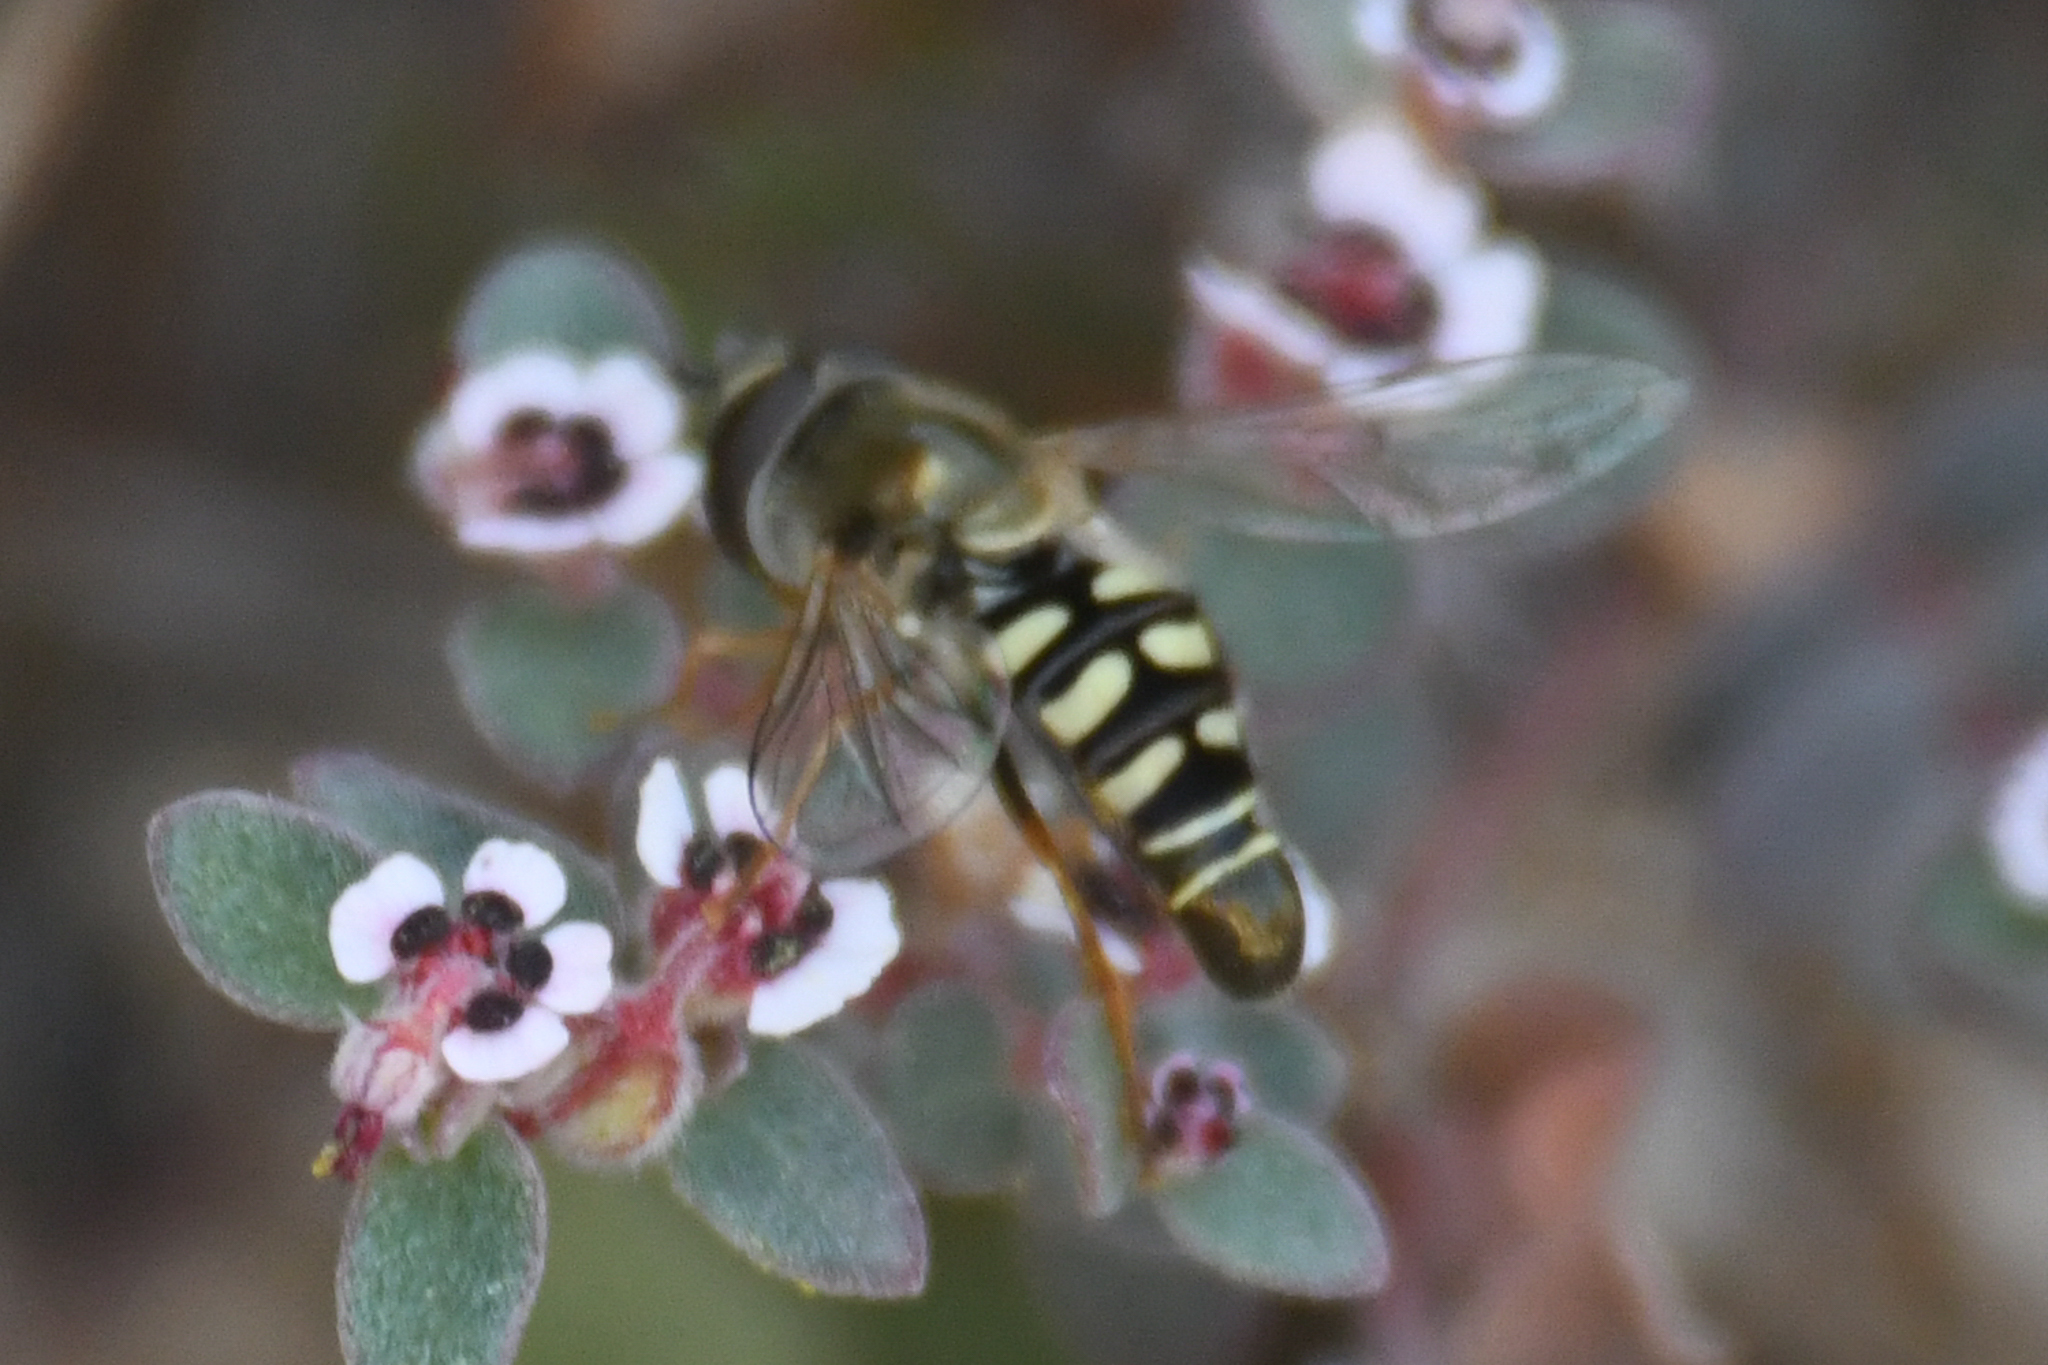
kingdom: Animalia
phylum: Arthropoda
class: Insecta
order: Diptera
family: Syrphidae
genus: Eupeodes
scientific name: Eupeodes volucris
